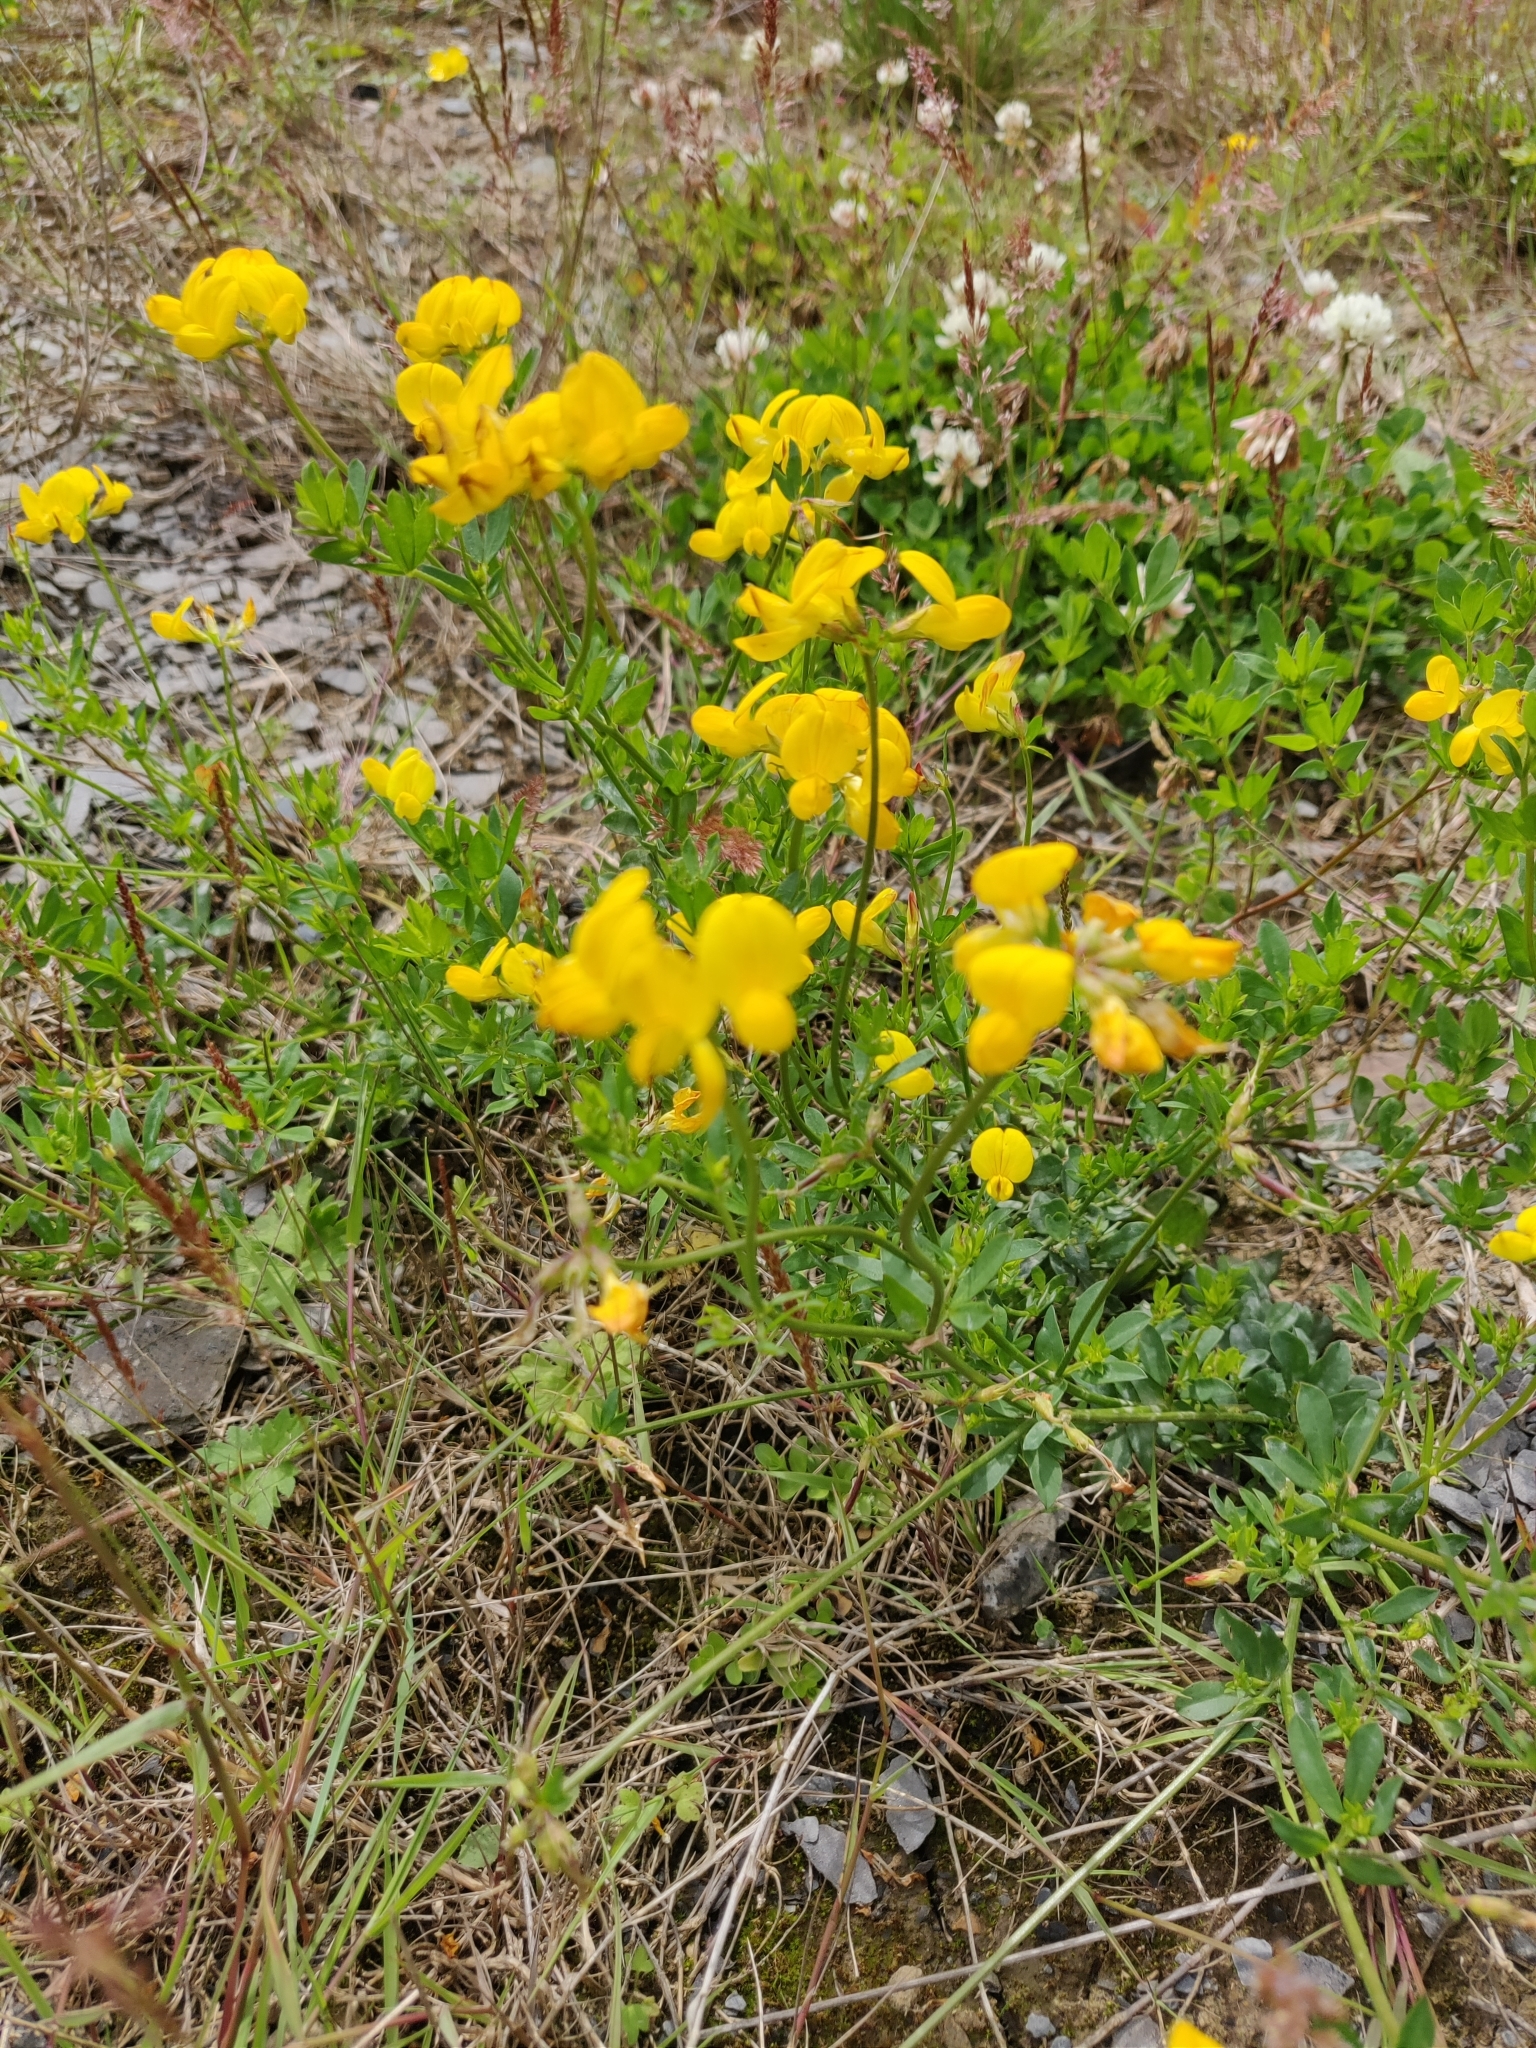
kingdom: Plantae
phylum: Tracheophyta
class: Magnoliopsida
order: Fabales
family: Fabaceae
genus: Lotus
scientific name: Lotus corniculatus
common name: Common bird's-foot-trefoil
